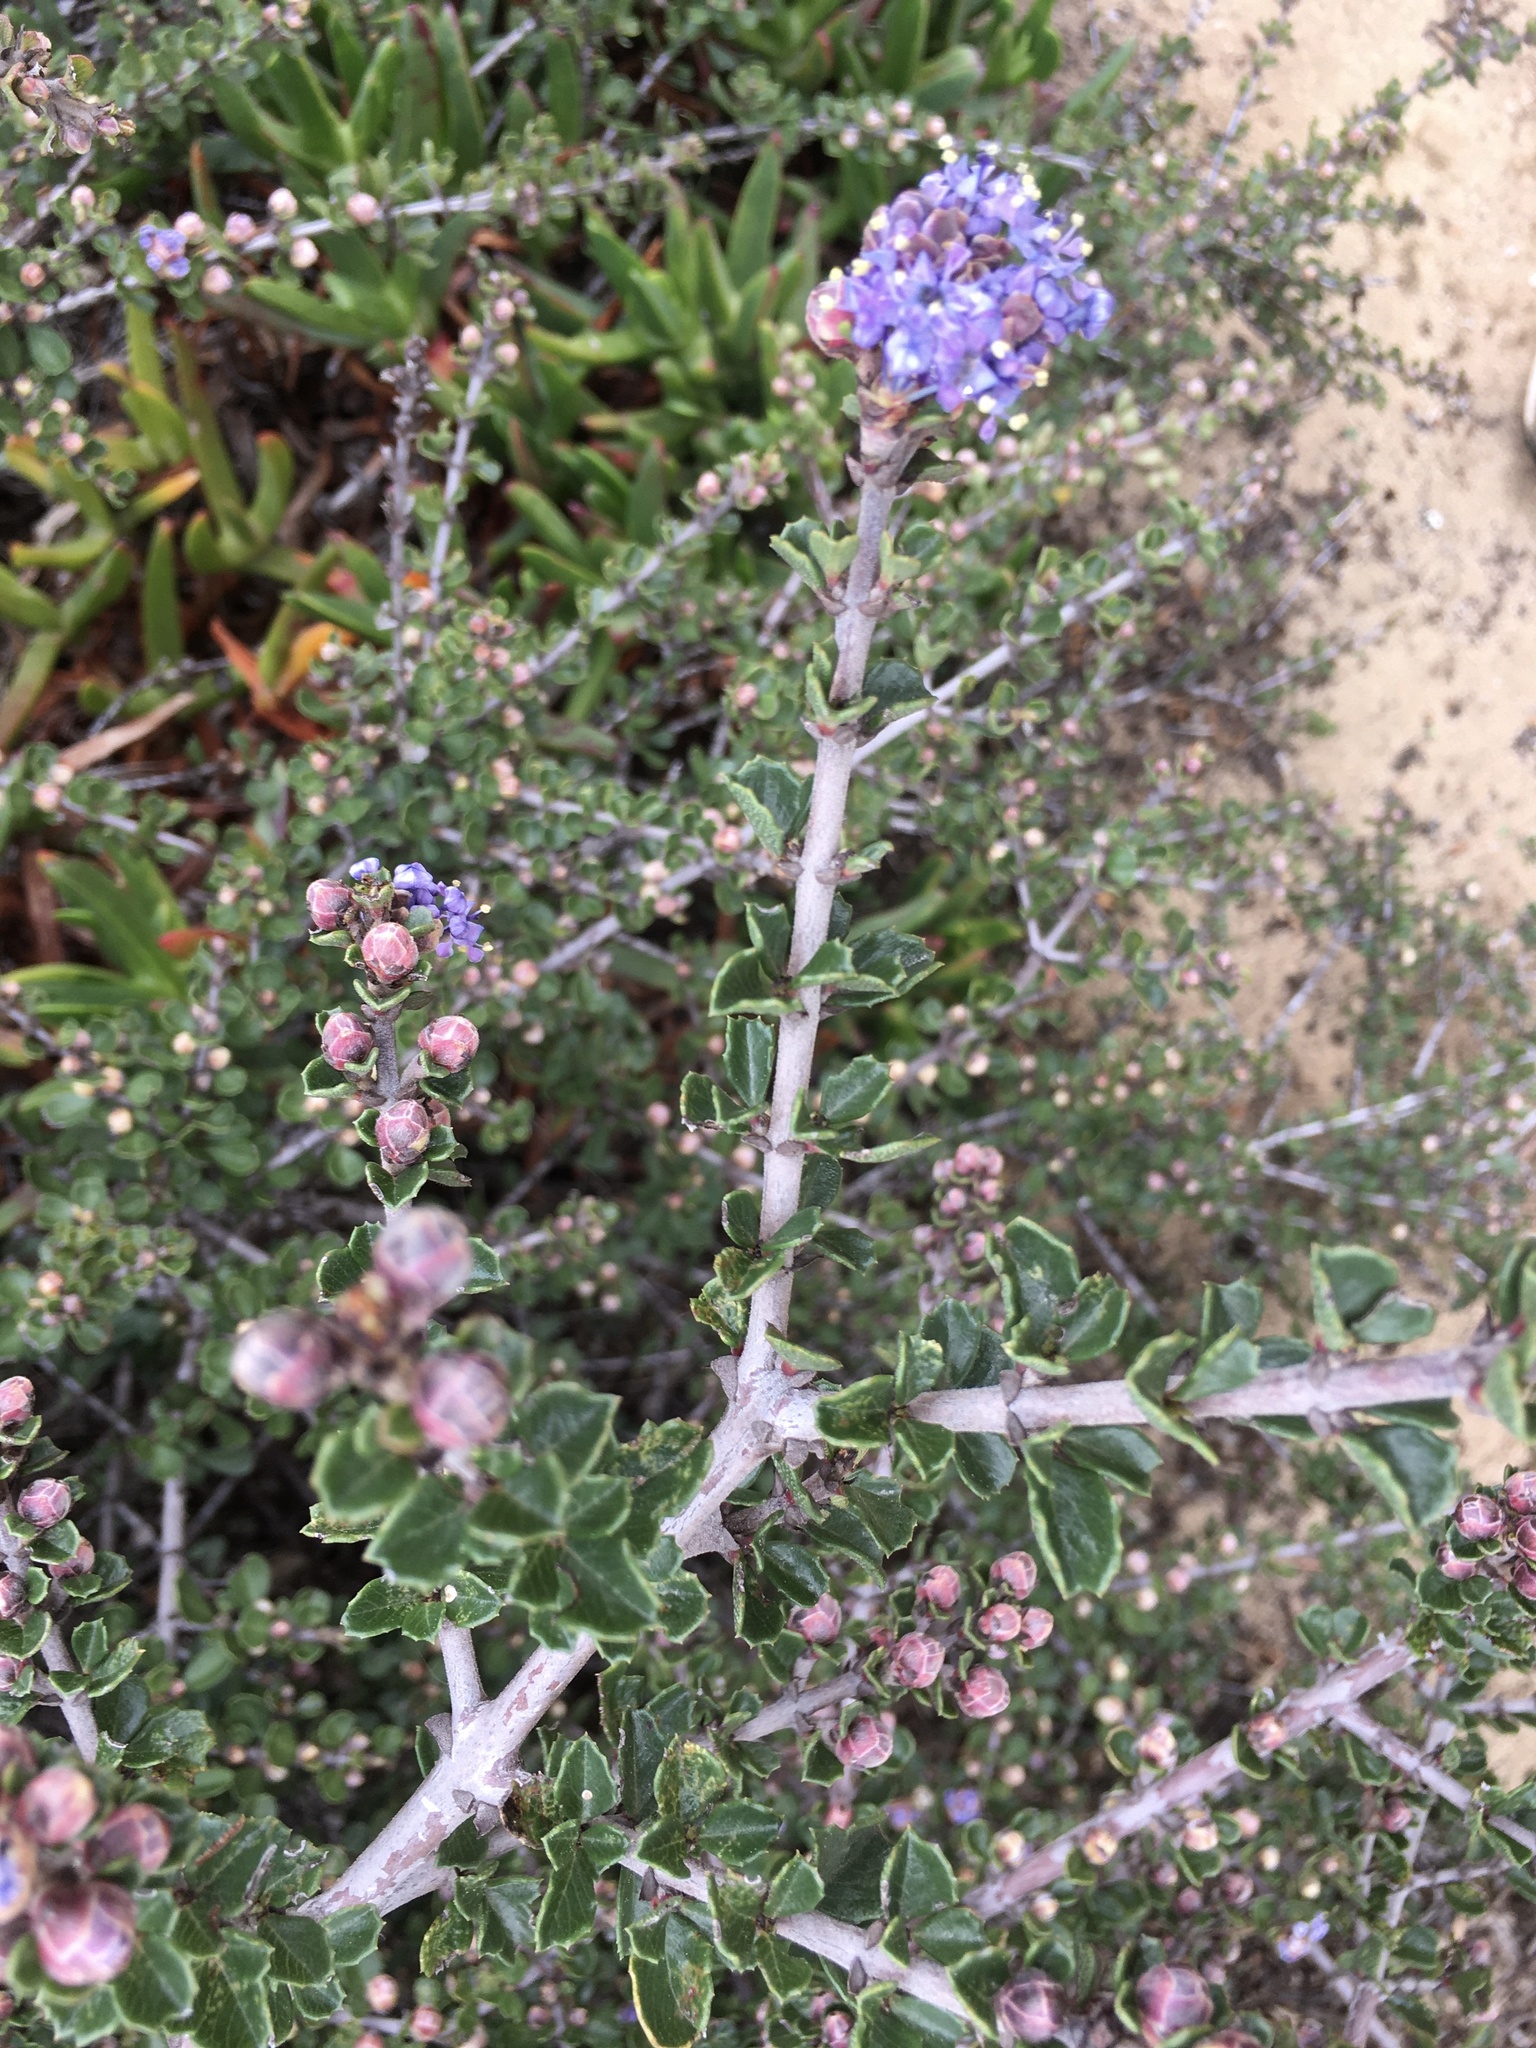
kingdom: Plantae
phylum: Tracheophyta
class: Magnoliopsida
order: Rosales
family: Rhamnaceae
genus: Ceanothus
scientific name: Ceanothus cuneatus
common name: Cuneate ceanothus
